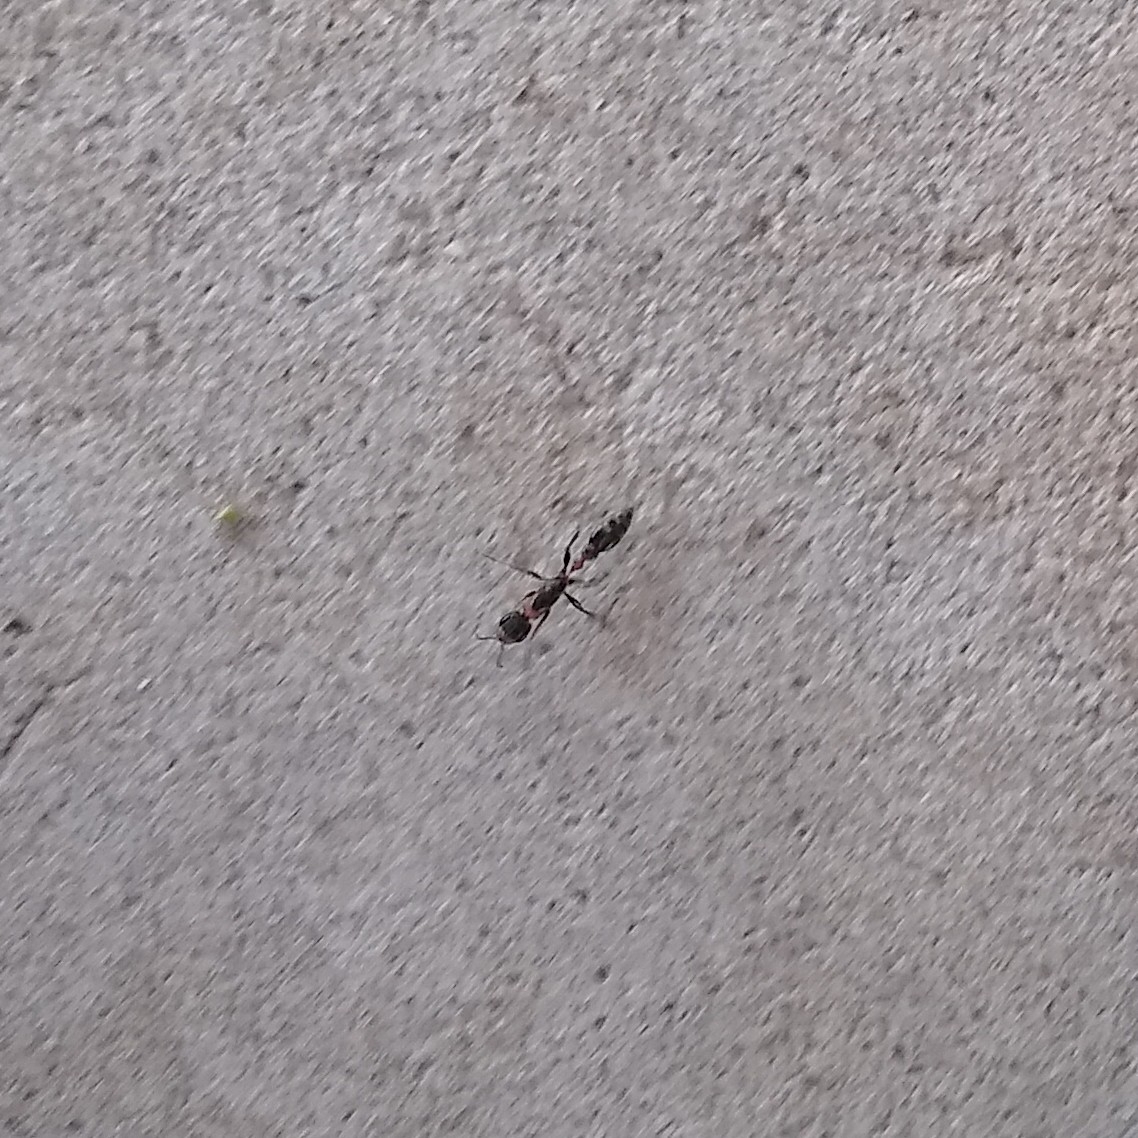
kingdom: Animalia
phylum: Arthropoda
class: Insecta
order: Hymenoptera
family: Formicidae
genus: Pseudomyrmex
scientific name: Pseudomyrmex gracilis
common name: Graceful twig ant
